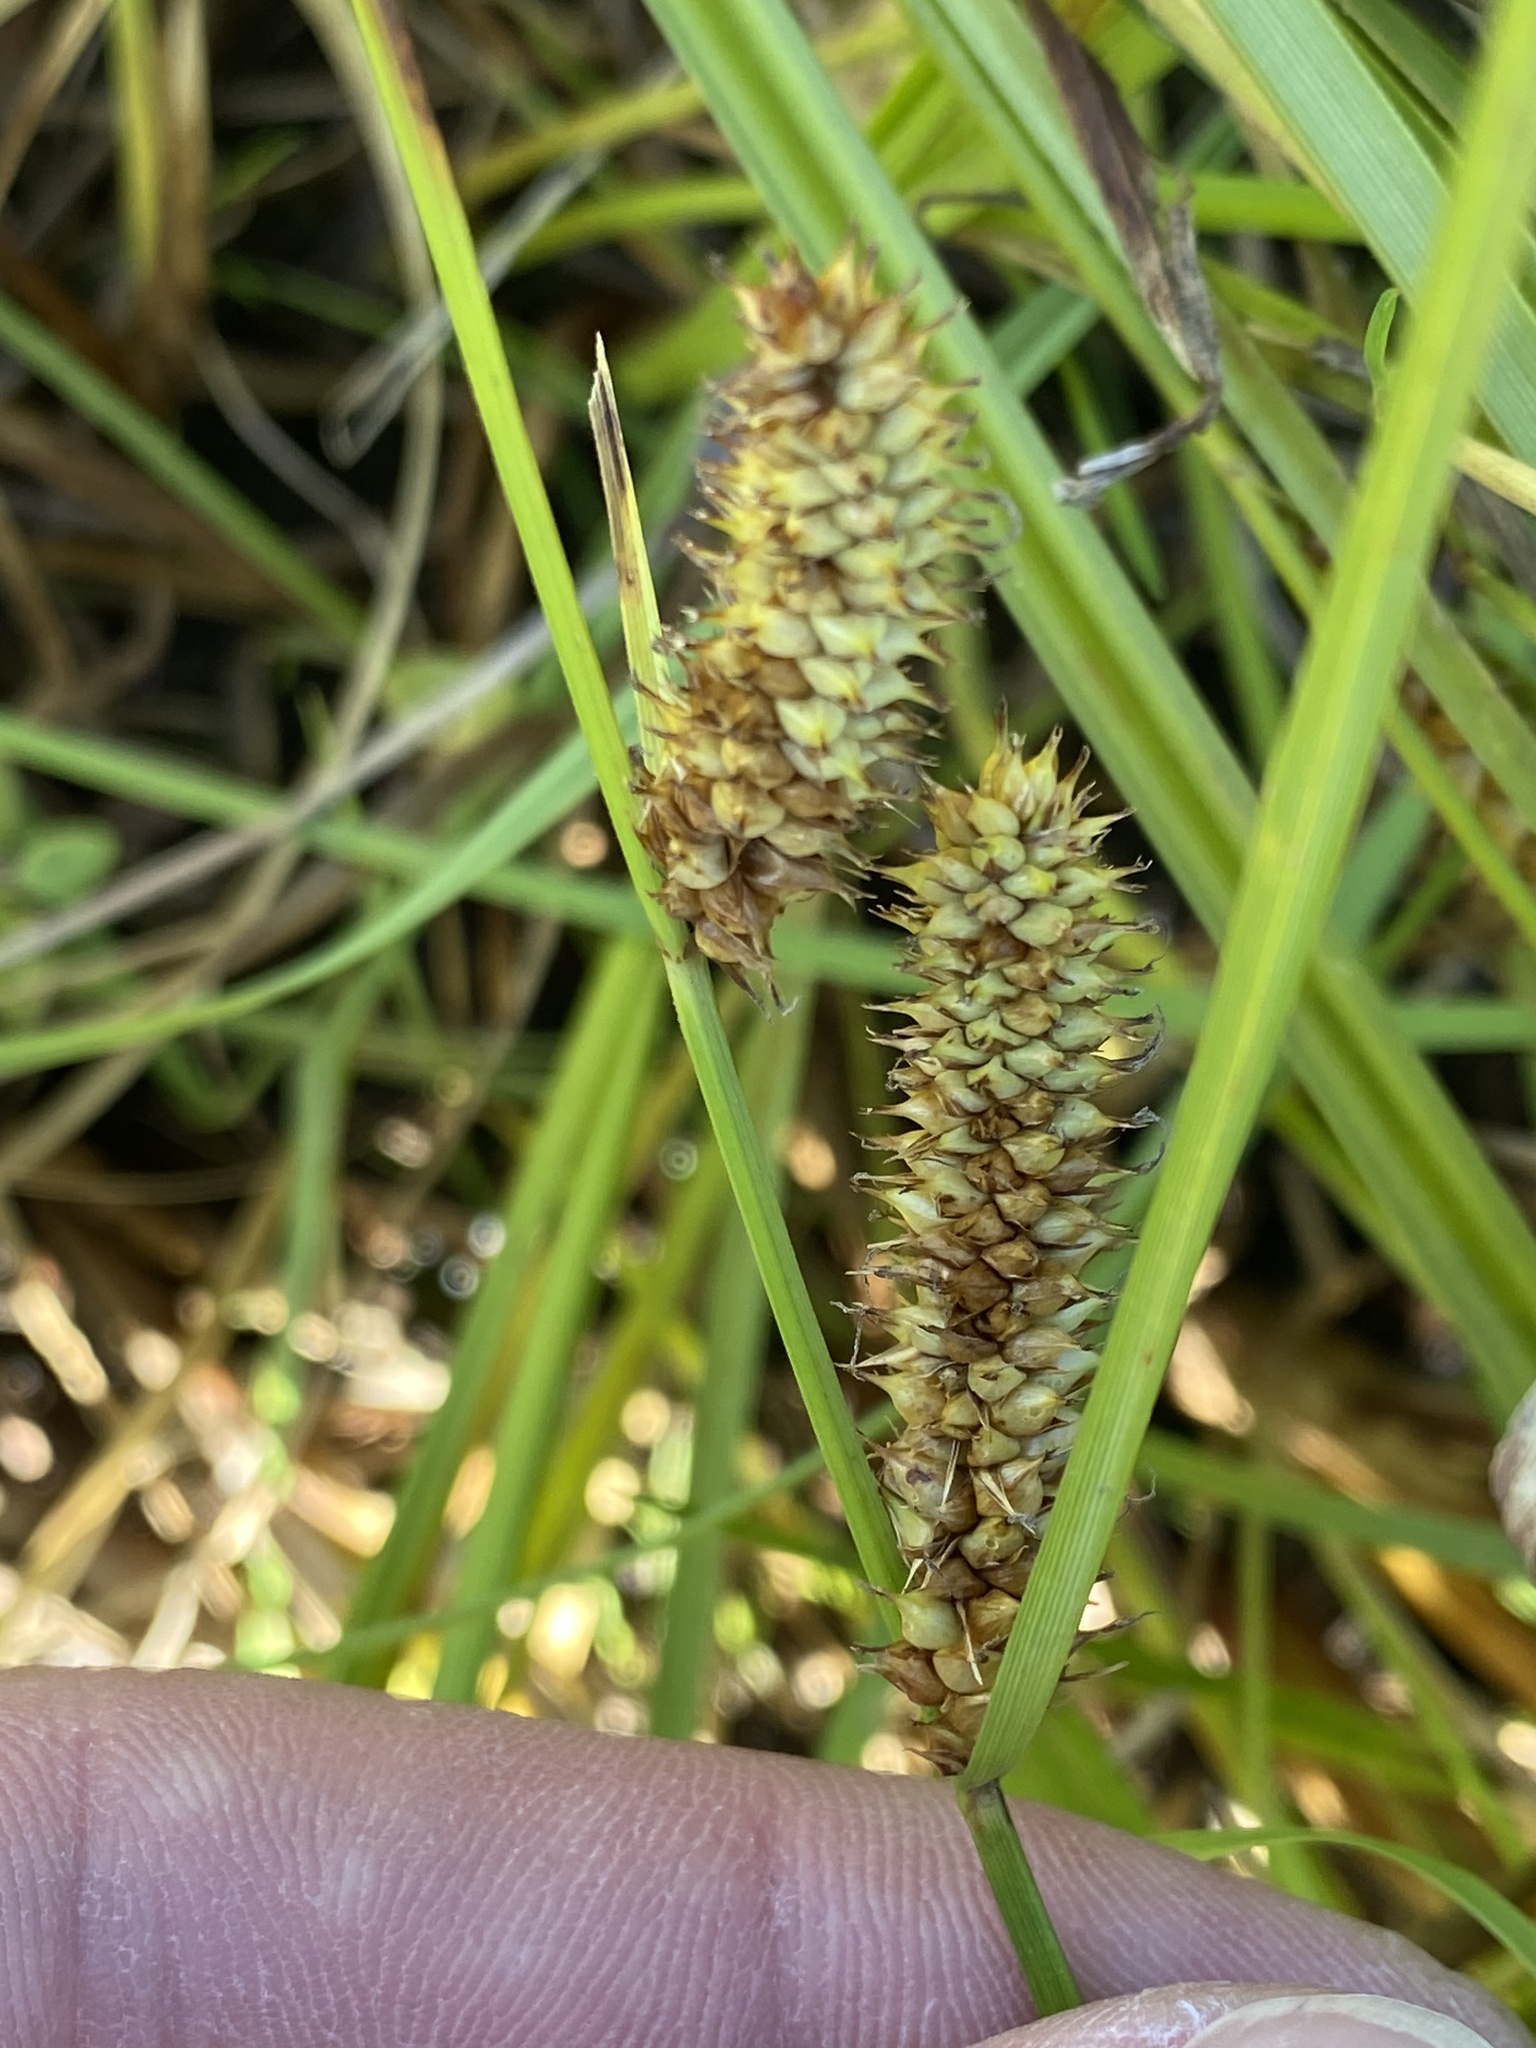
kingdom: Plantae
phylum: Tracheophyta
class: Liliopsida
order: Poales
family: Cyperaceae
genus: Carex
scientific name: Carex utriculata
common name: Beaked sedge
